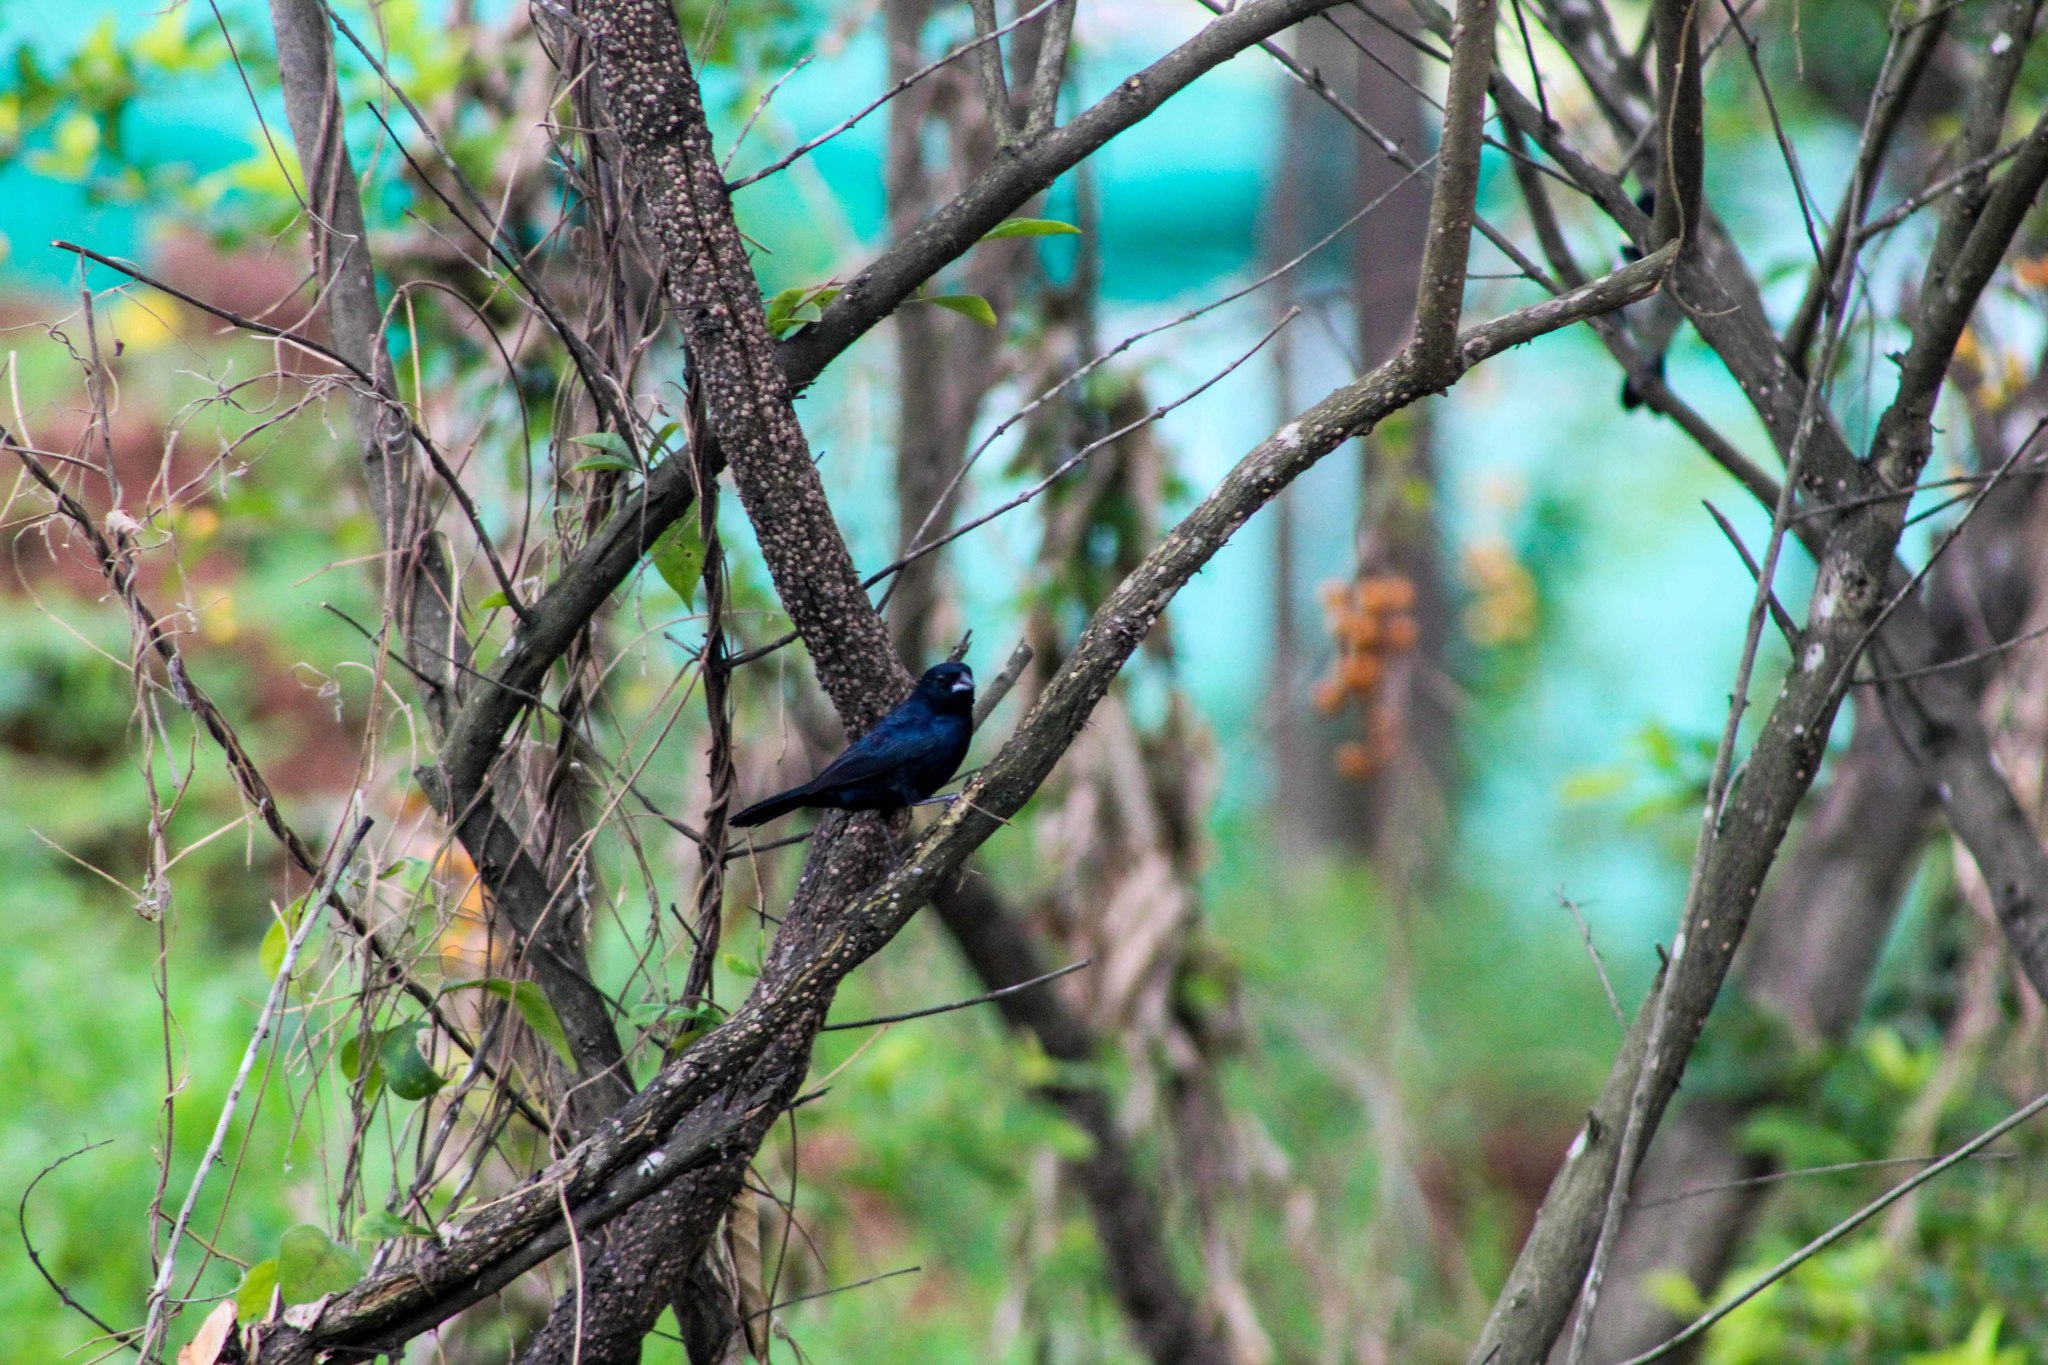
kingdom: Animalia
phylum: Chordata
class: Aves
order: Passeriformes
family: Thraupidae
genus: Volatinia
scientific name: Volatinia jacarina
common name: Blue-black grassquit
